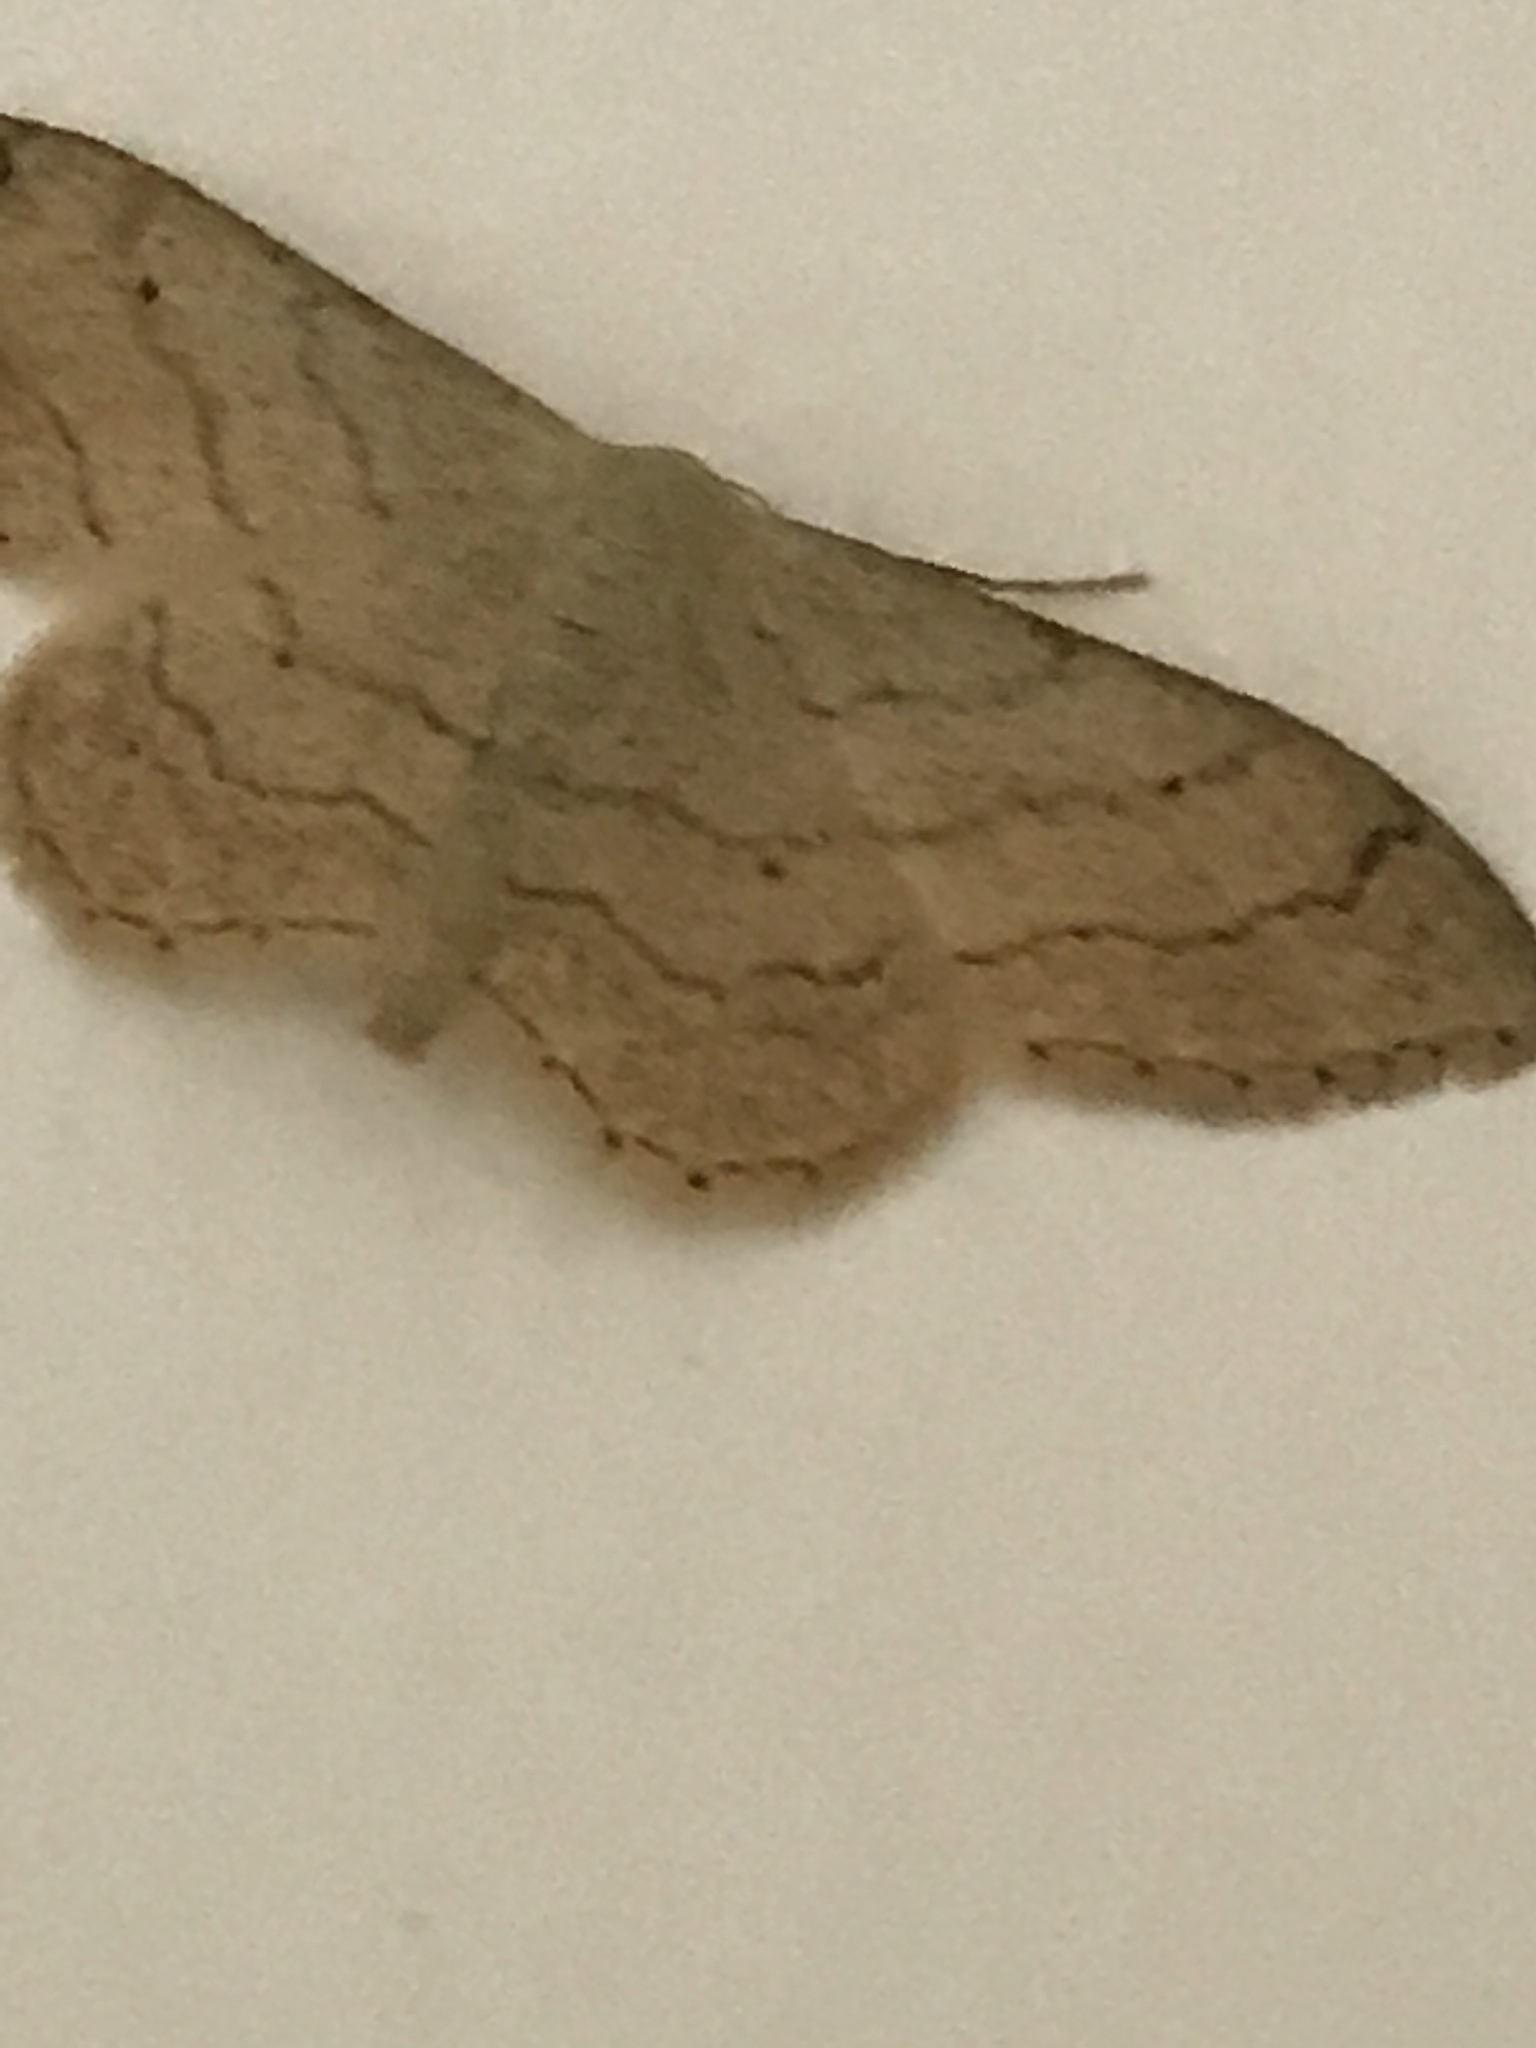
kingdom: Animalia
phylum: Arthropoda
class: Insecta
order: Lepidoptera
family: Geometridae
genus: Idaea
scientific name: Idaea aversata
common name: Riband wave
